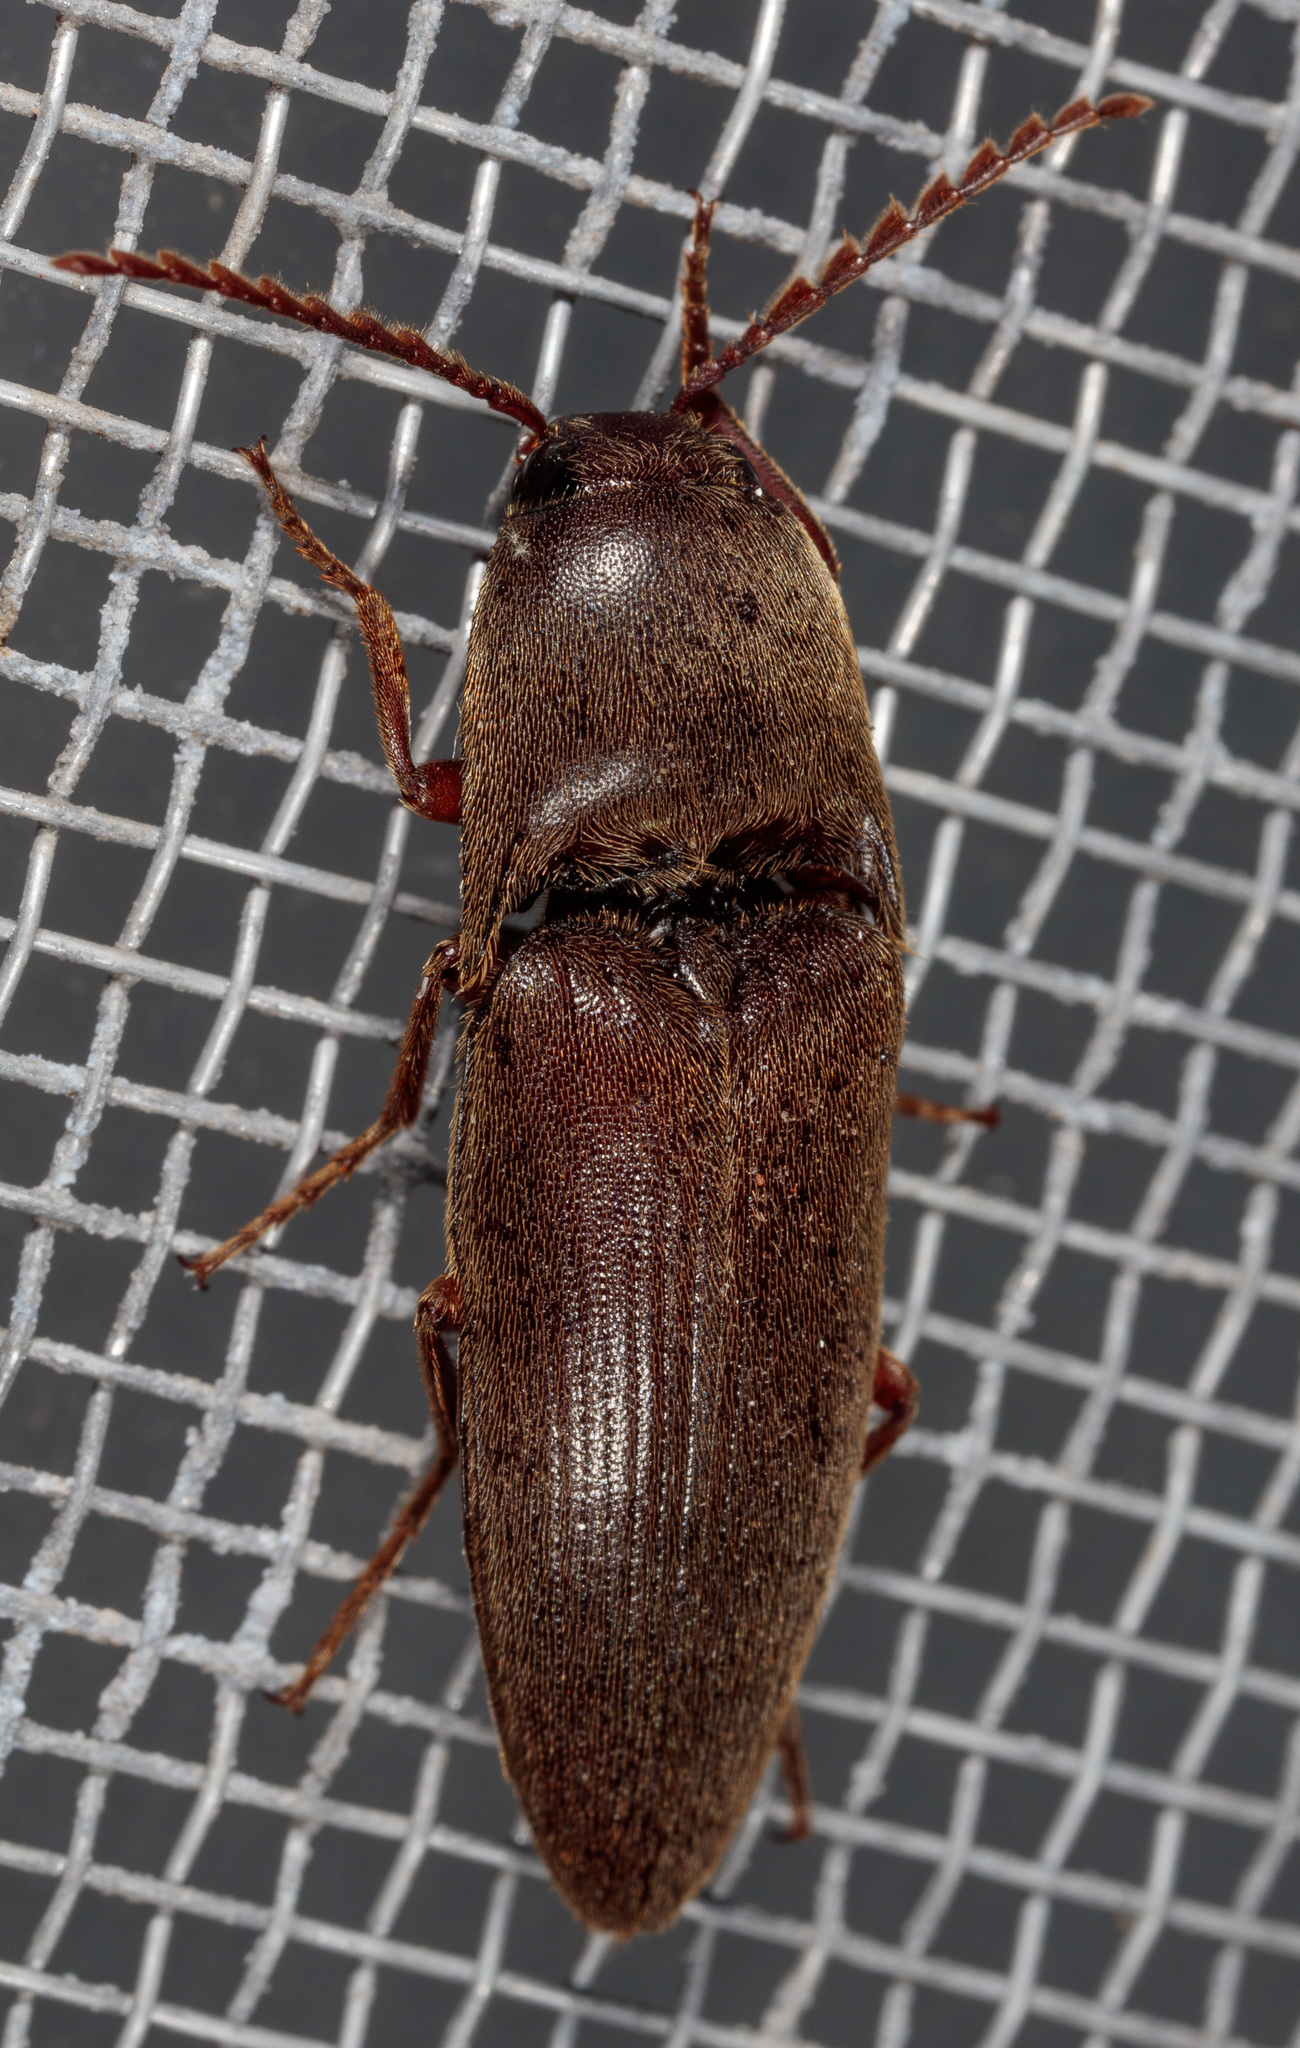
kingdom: Animalia
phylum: Arthropoda
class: Insecta
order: Coleoptera
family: Elateridae
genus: Diplostethus
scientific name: Diplostethus
